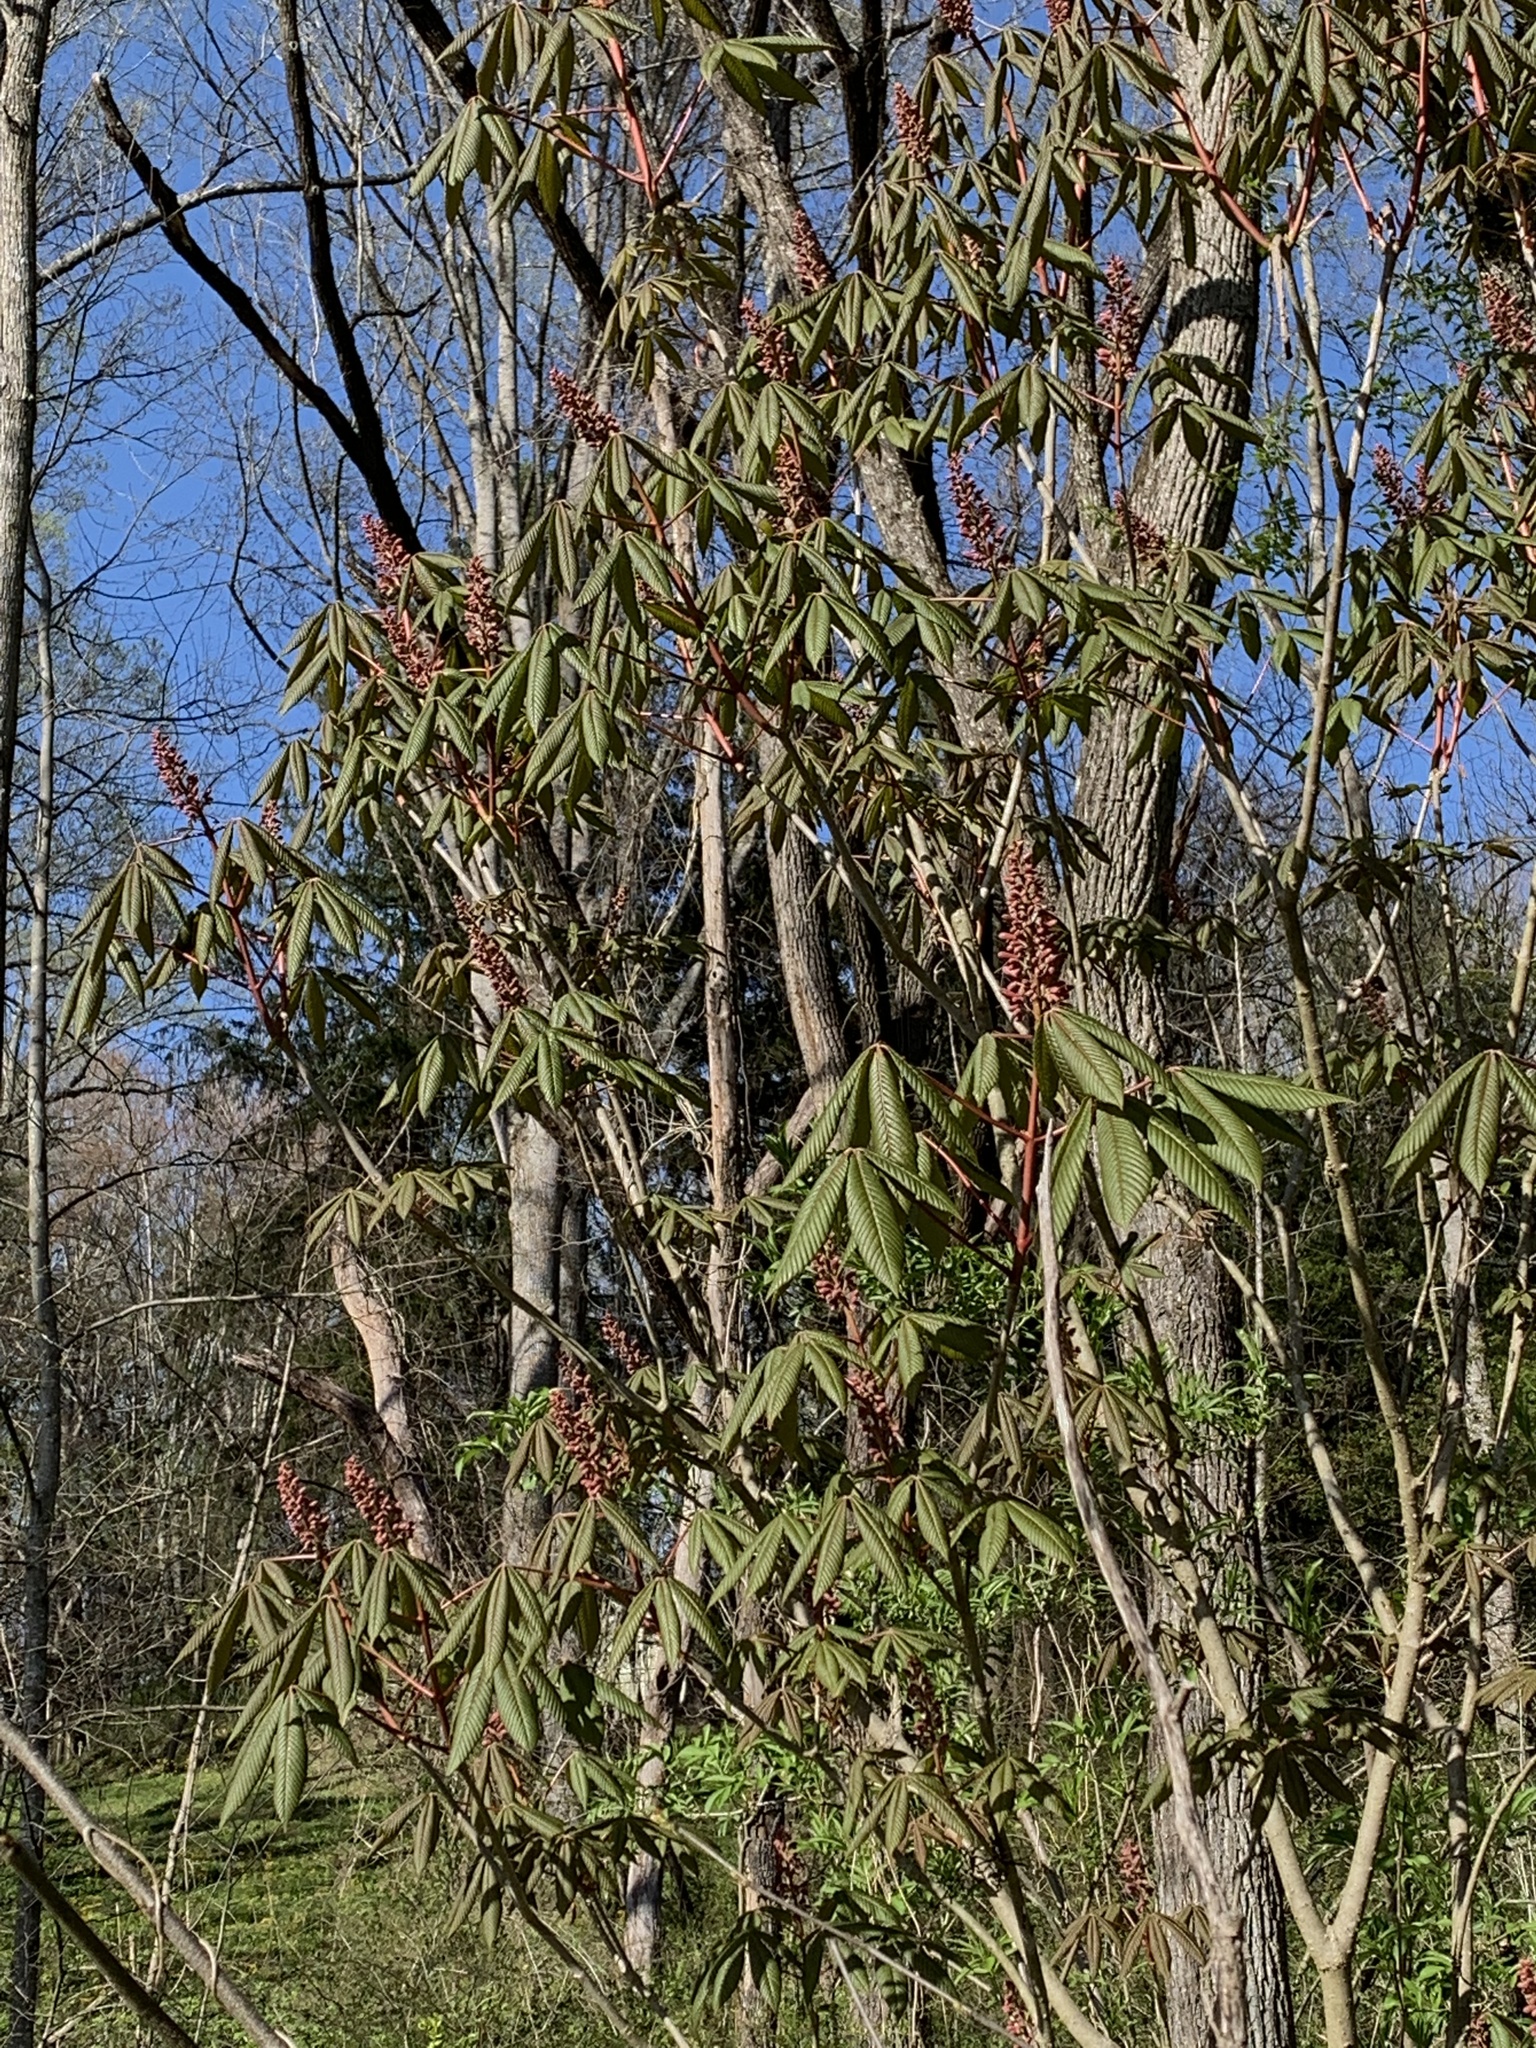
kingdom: Plantae
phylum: Tracheophyta
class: Magnoliopsida
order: Sapindales
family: Sapindaceae
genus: Aesculus
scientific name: Aesculus pavia
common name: Red buckeye
